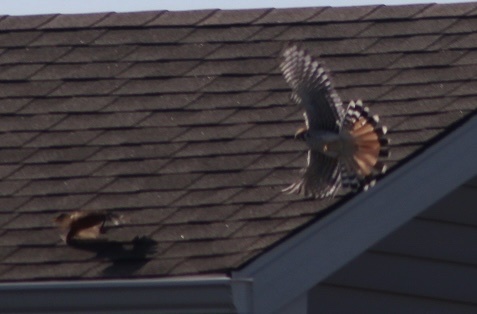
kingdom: Animalia
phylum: Chordata
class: Aves
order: Falconiformes
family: Falconidae
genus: Falco
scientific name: Falco sparverius
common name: American kestrel
